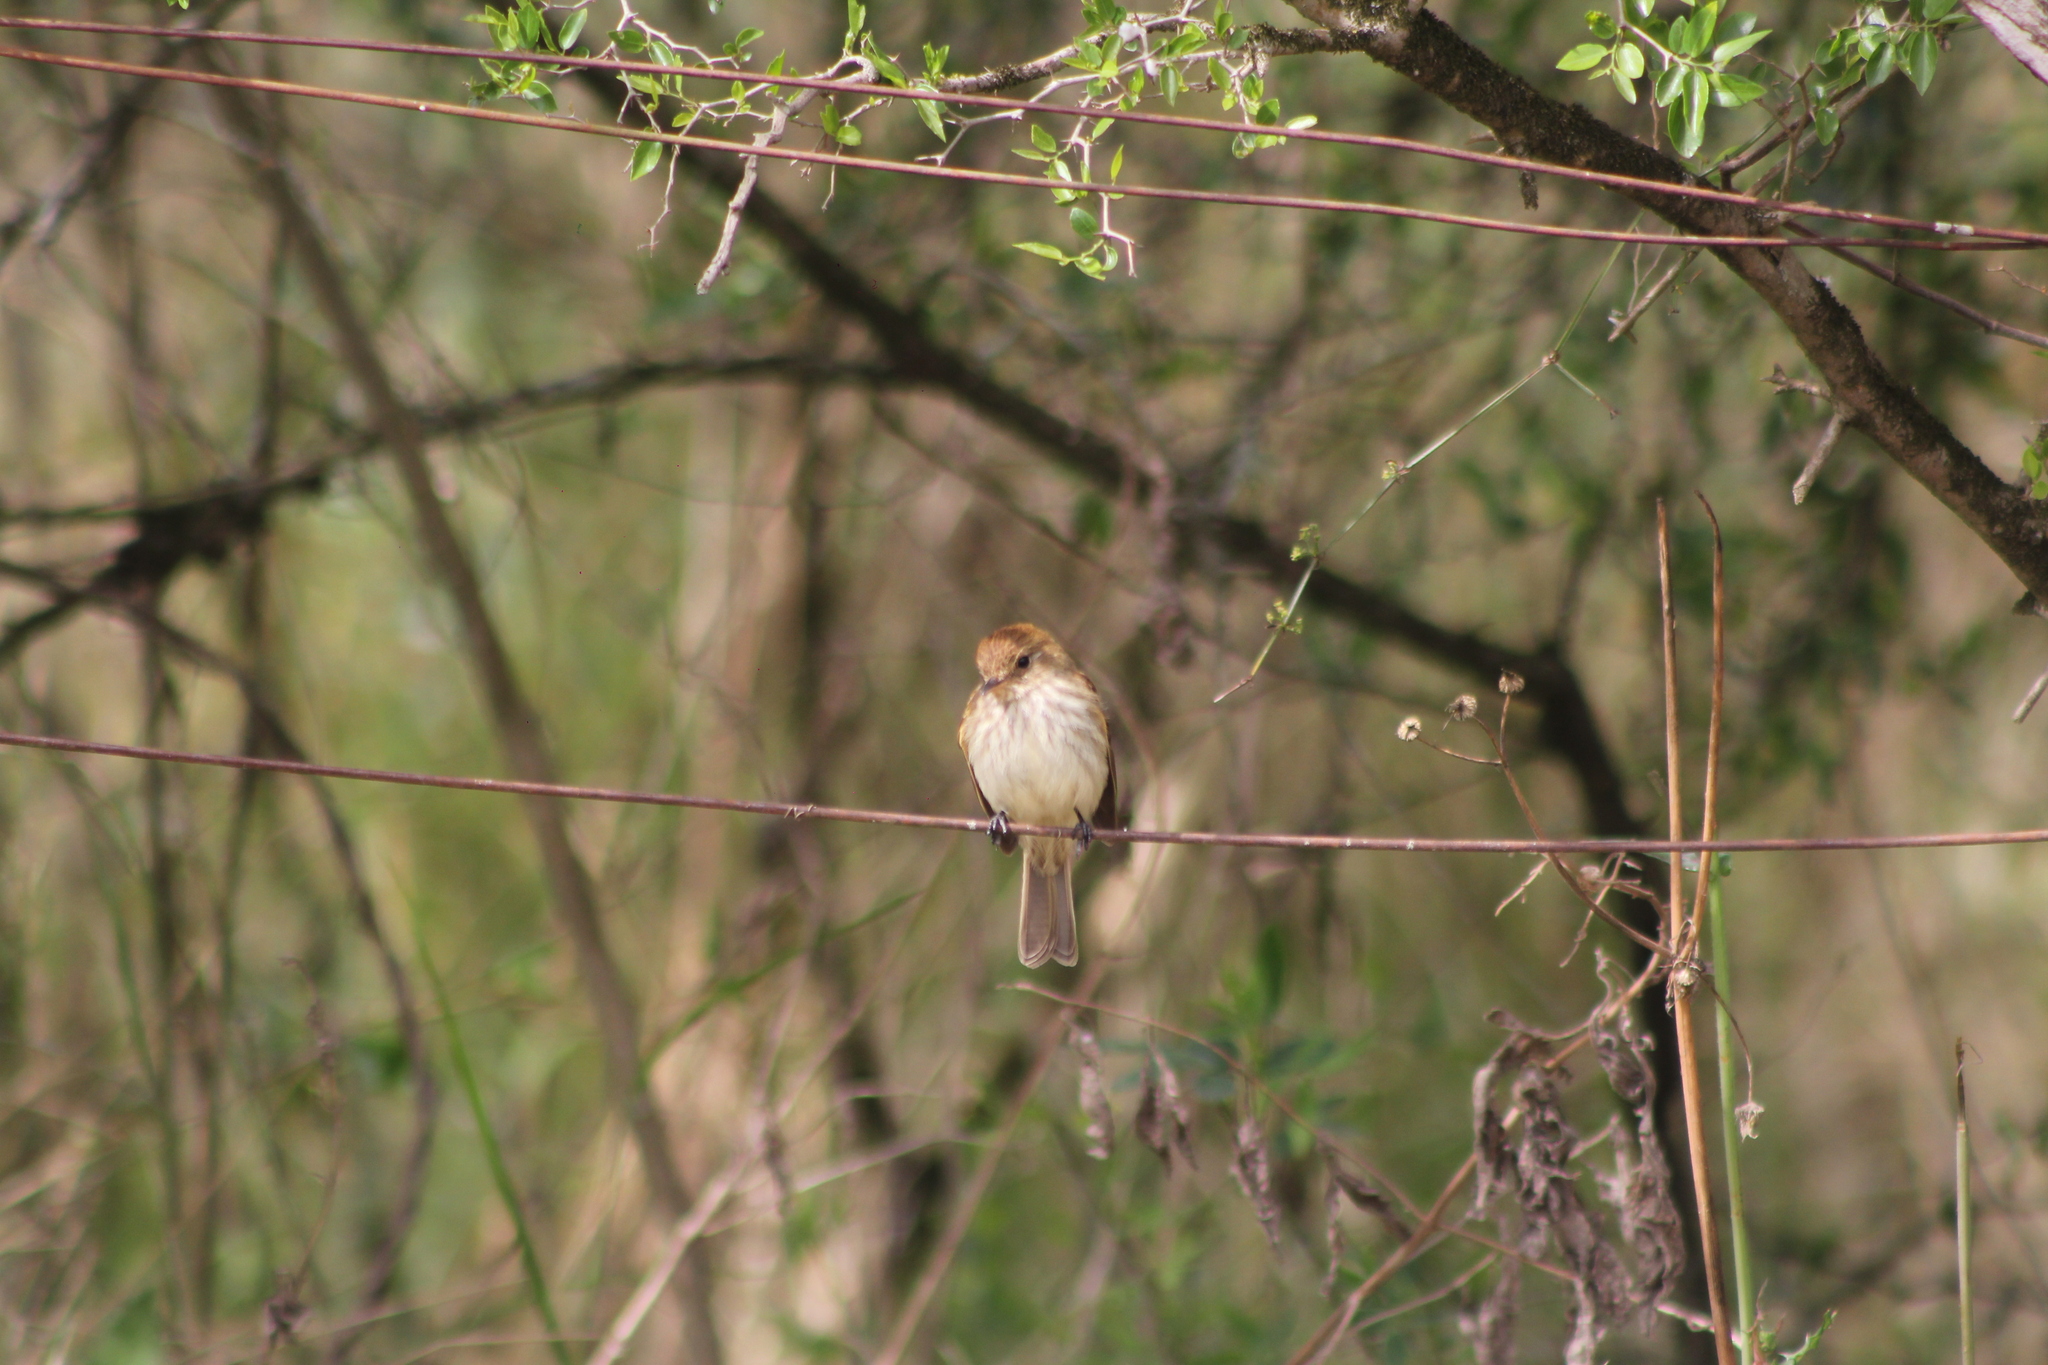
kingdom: Animalia
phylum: Chordata
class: Aves
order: Passeriformes
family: Tyrannidae
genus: Myiophobus
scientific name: Myiophobus fasciatus
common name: Bran-colored flycatcher
